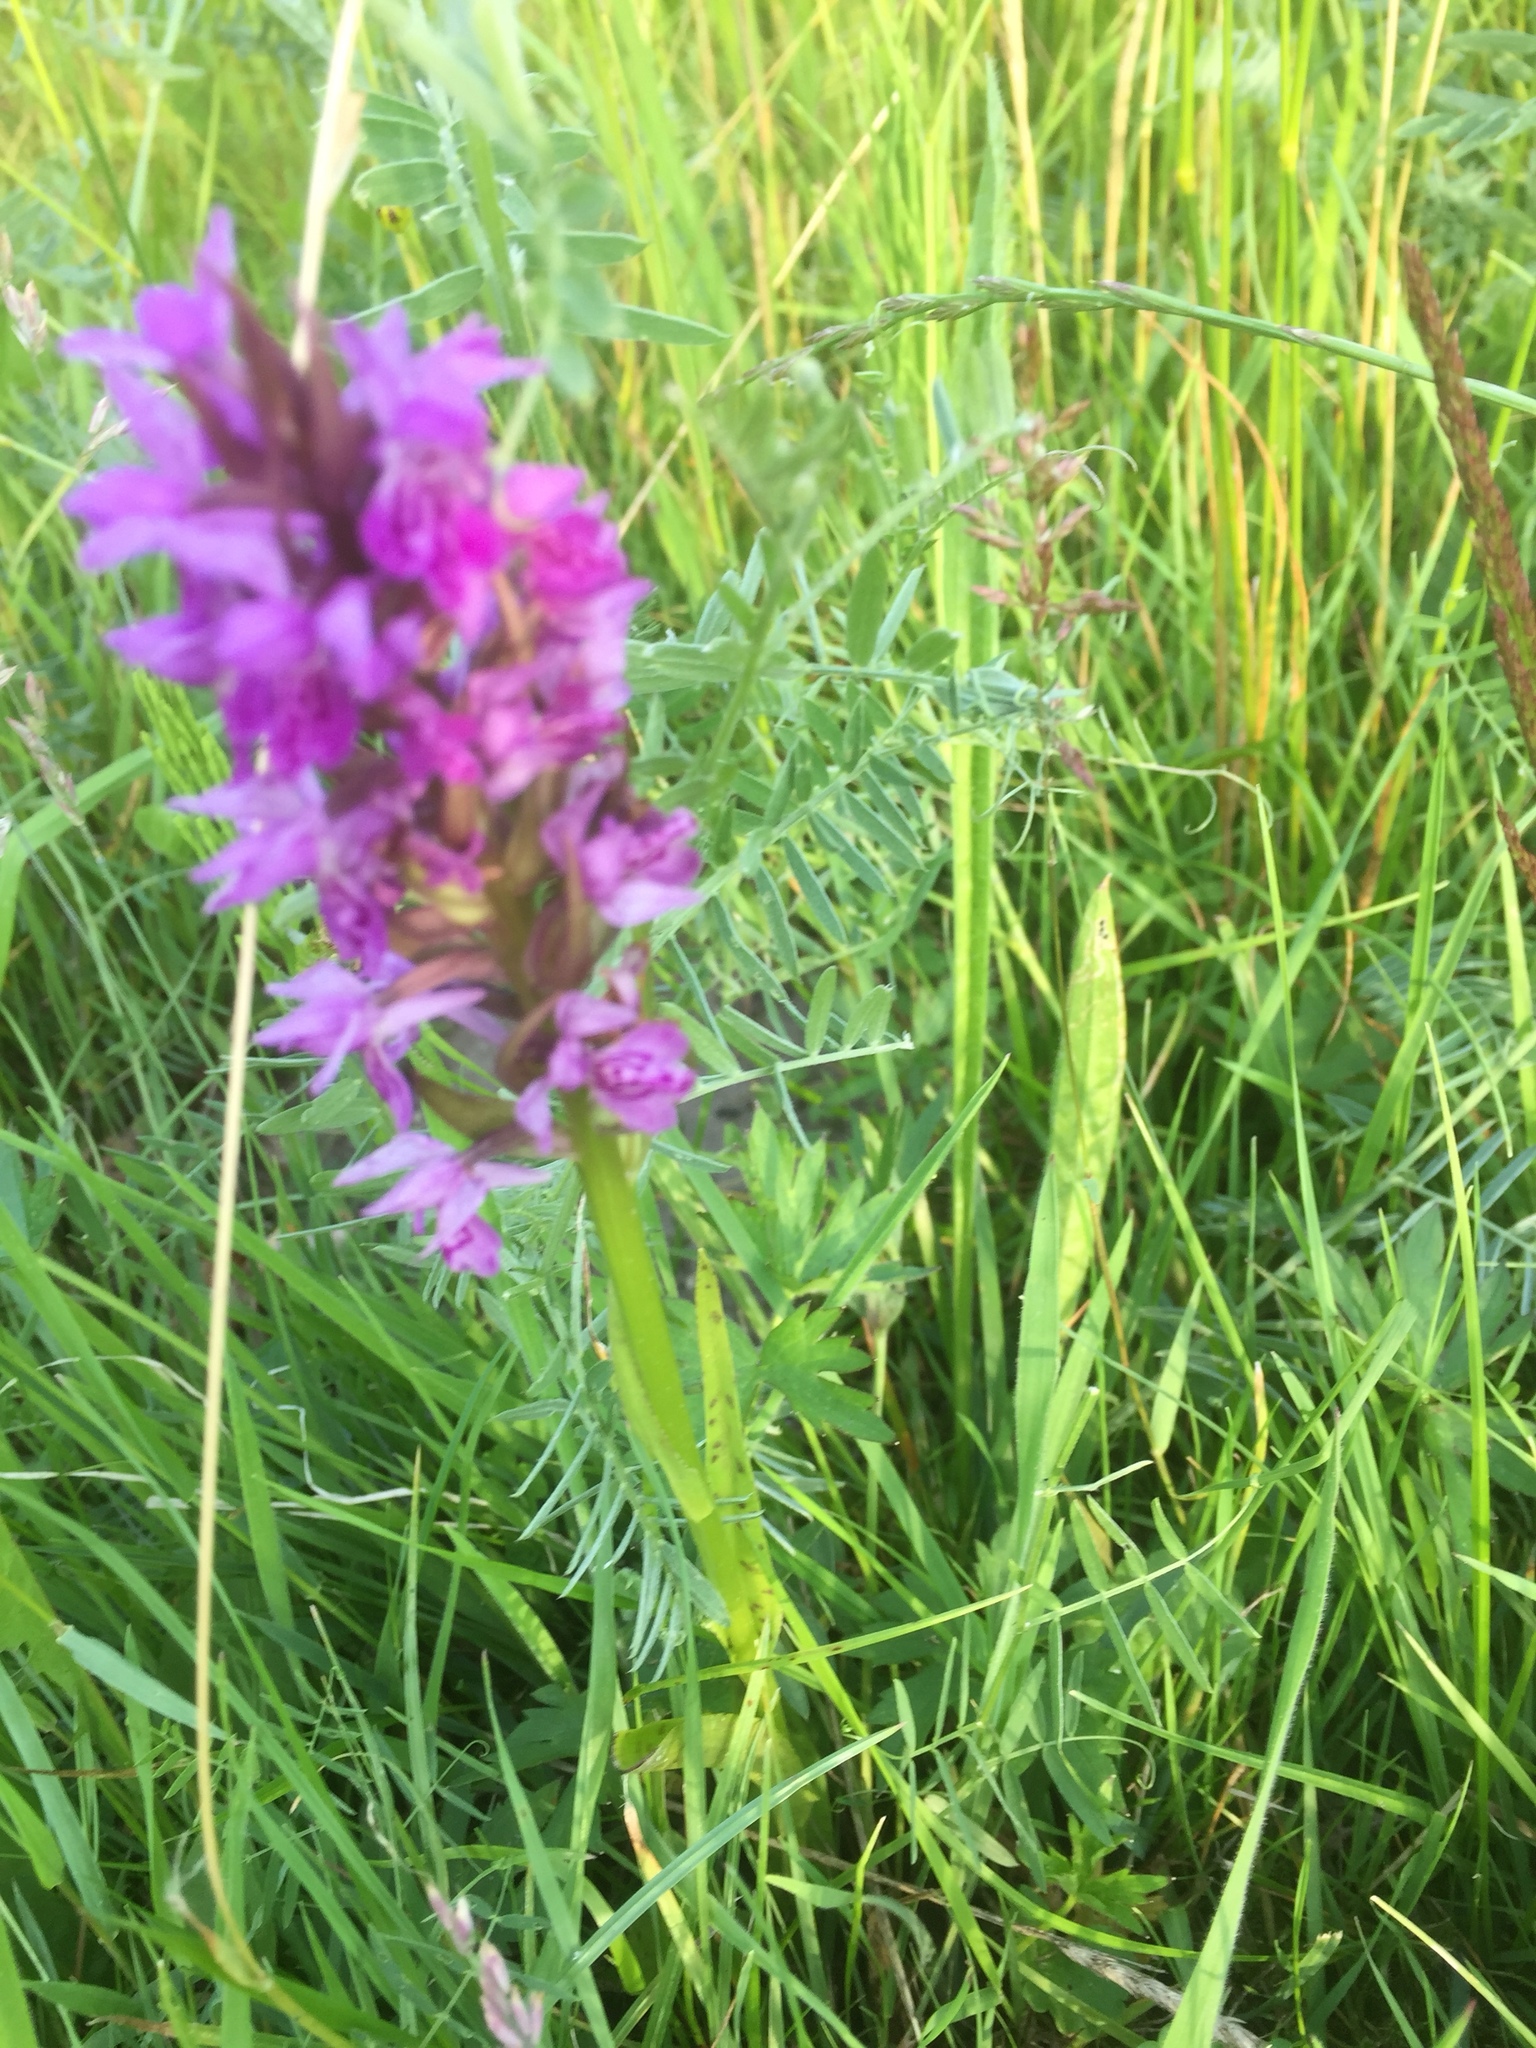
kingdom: Plantae
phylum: Tracheophyta
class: Liliopsida
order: Asparagales
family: Orchidaceae
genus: Dactylorhiza
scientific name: Dactylorhiza majalis
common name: Marsh orchid
